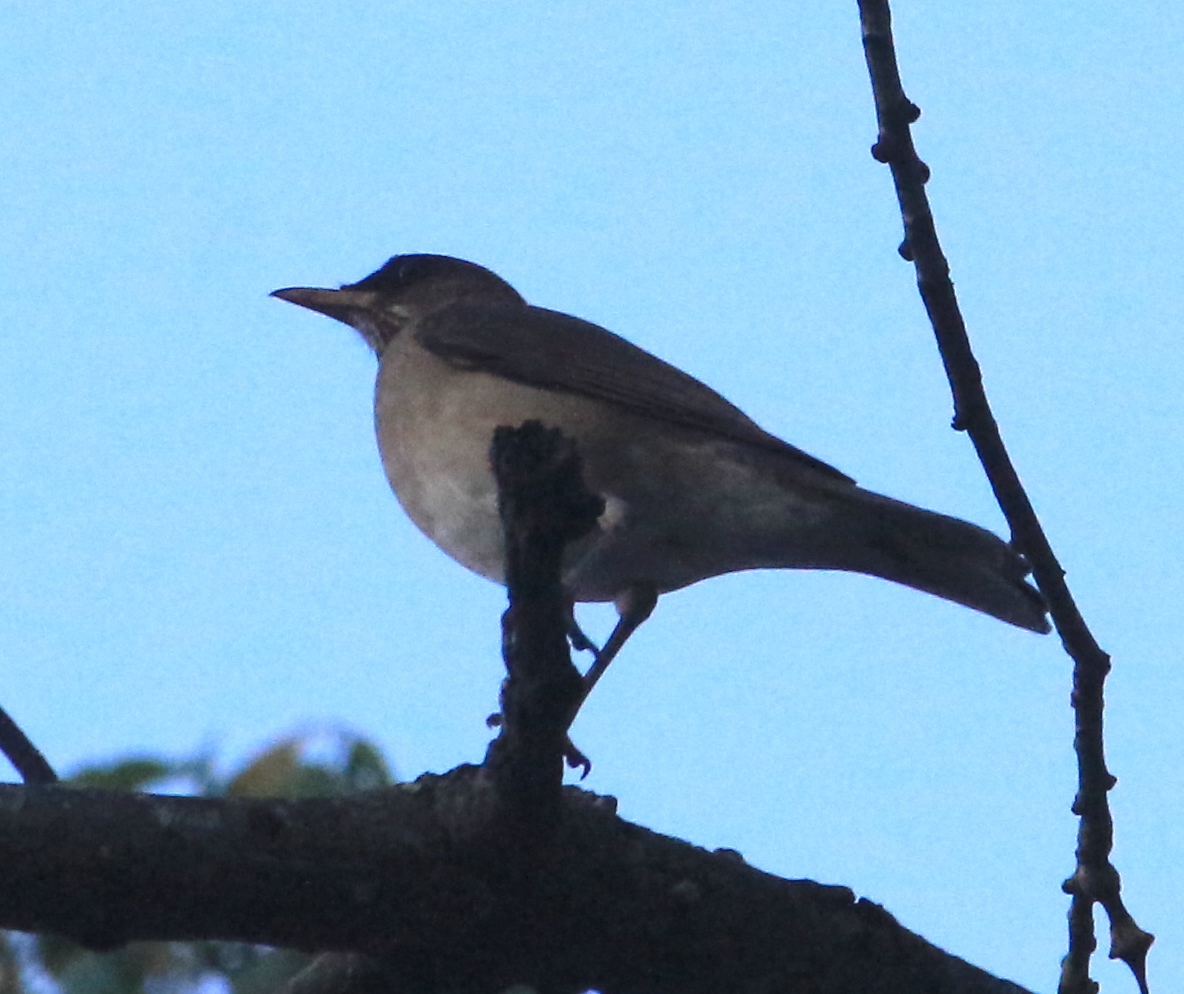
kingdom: Animalia
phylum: Chordata
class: Aves
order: Passeriformes
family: Turdidae
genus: Turdus
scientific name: Turdus amaurochalinus
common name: Creamy-bellied thrush
